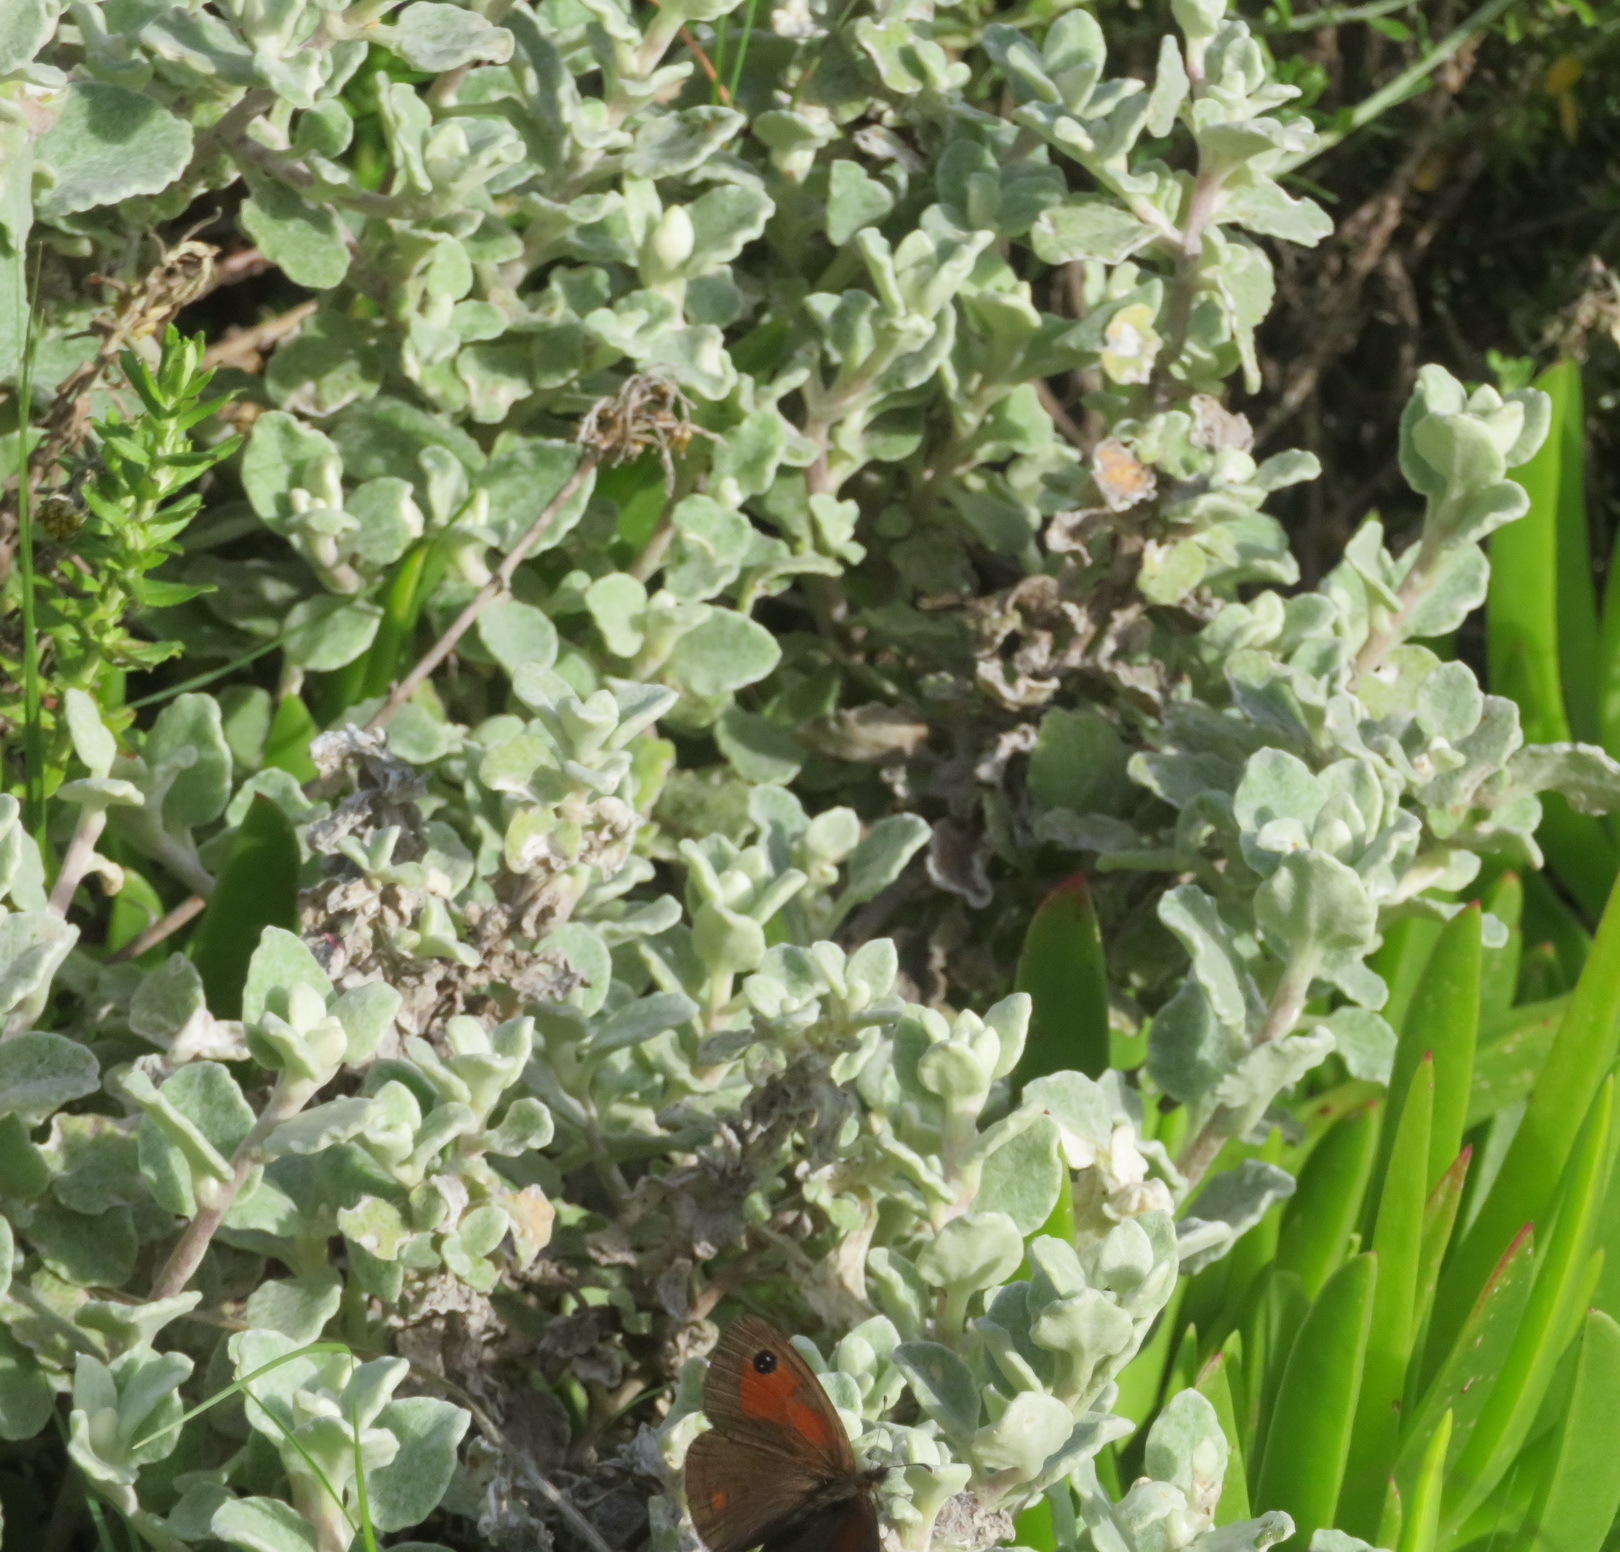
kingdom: Plantae
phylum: Tracheophyta
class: Magnoliopsida
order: Asterales
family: Asteraceae
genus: Helichrysum
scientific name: Helichrysum petiolare
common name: Licorice-plant
